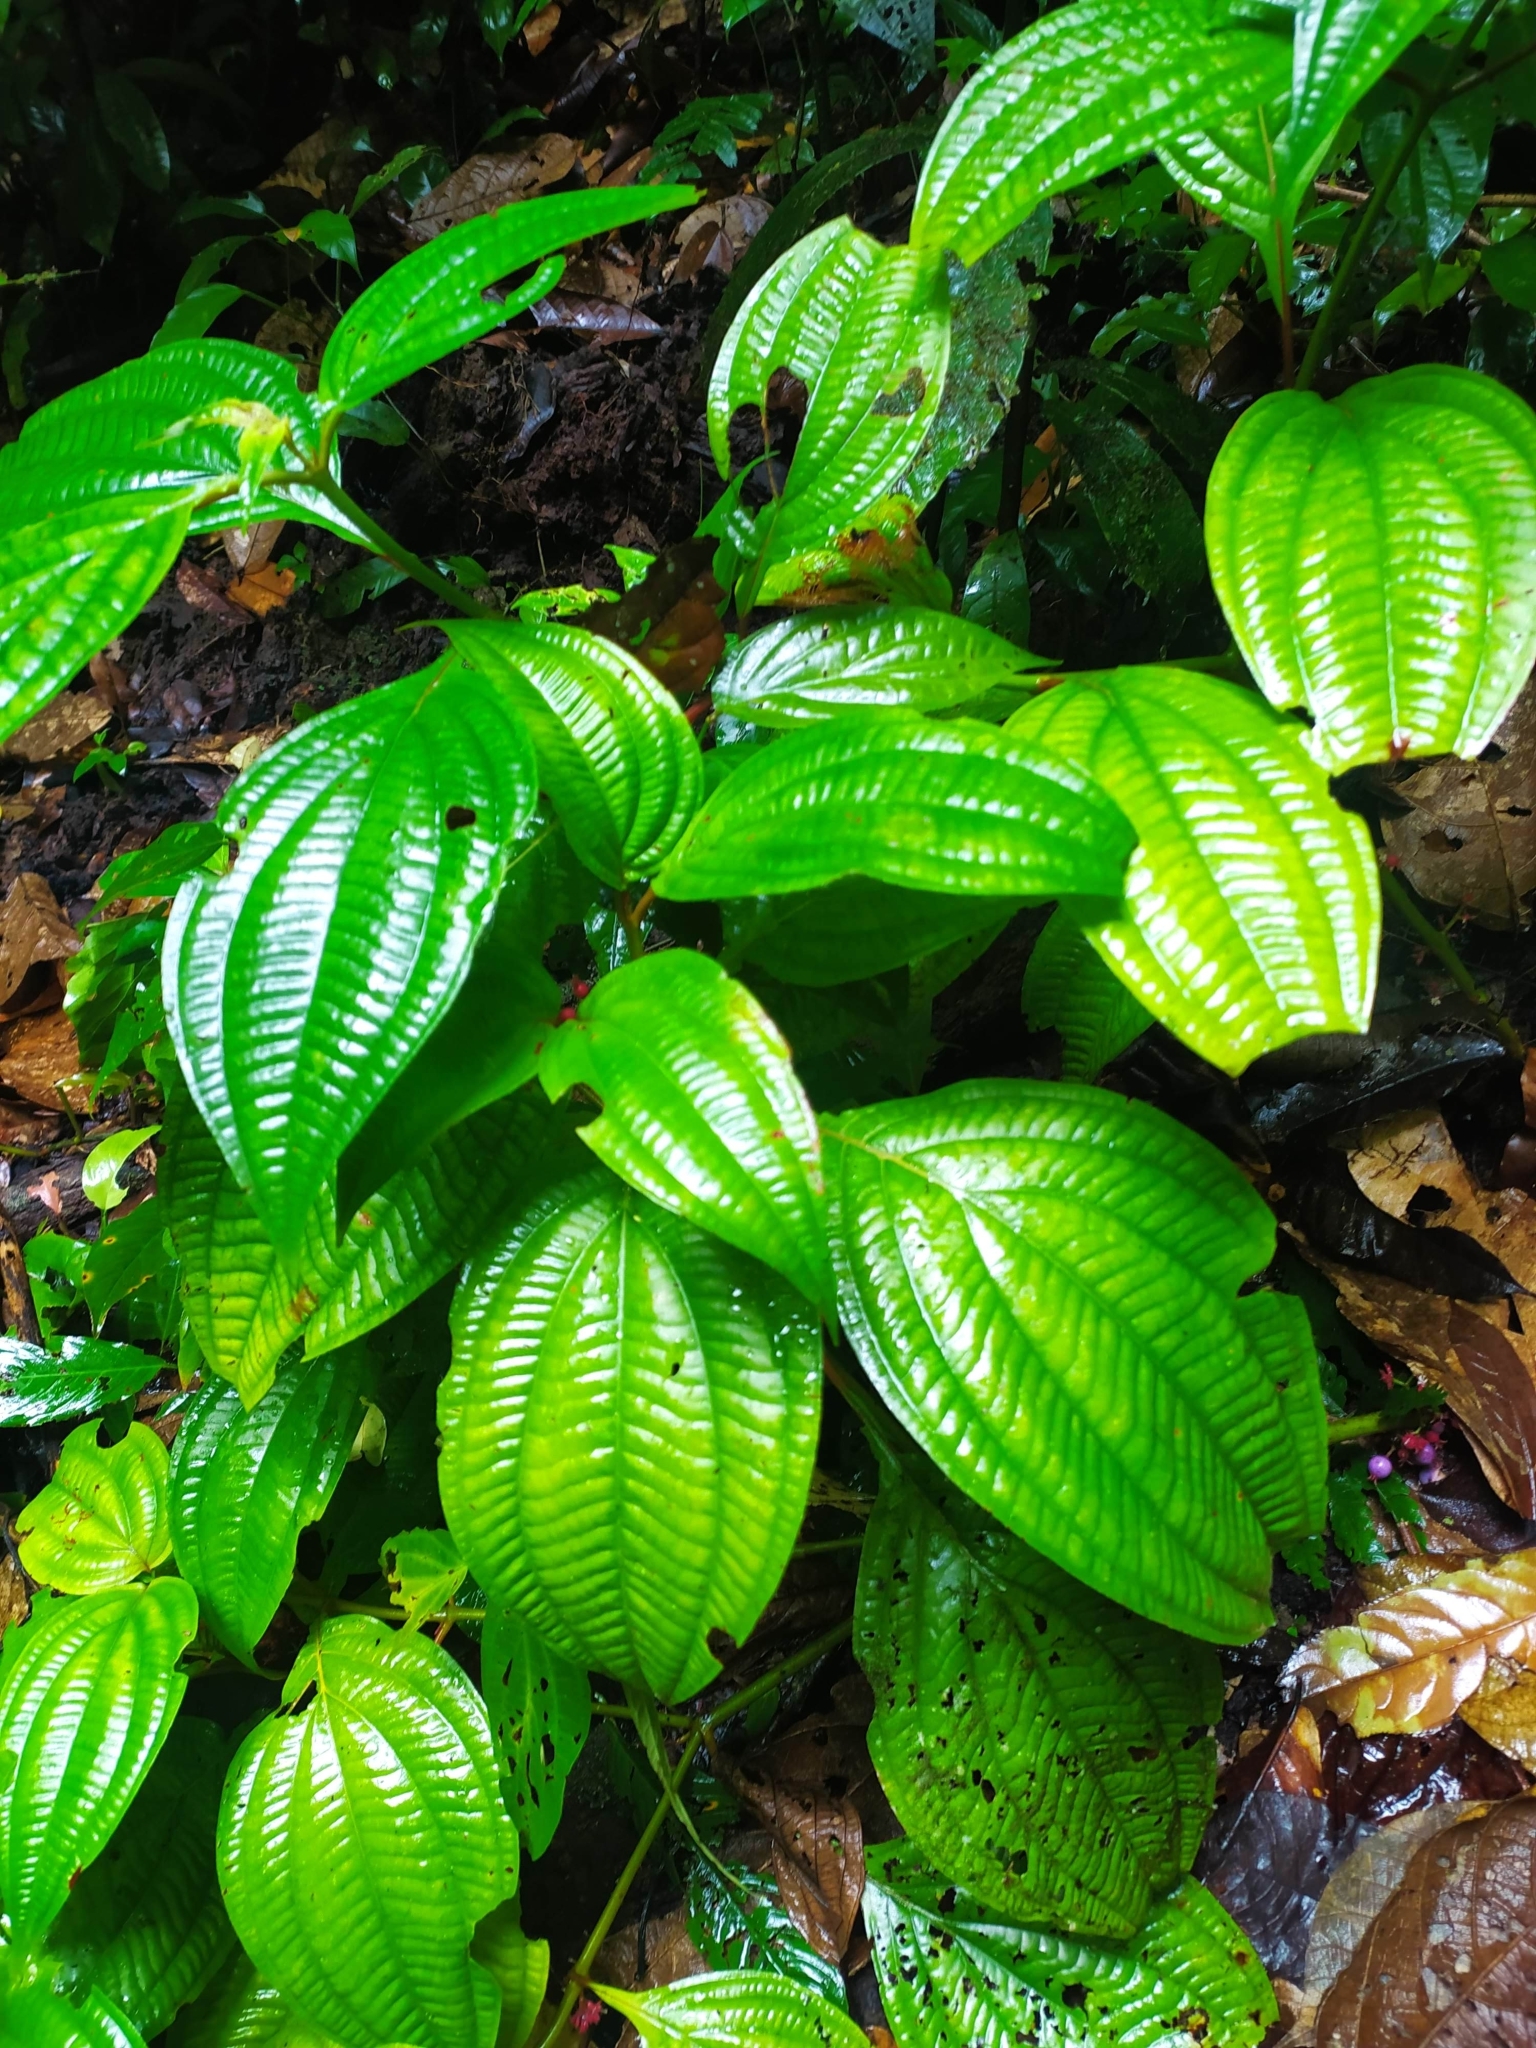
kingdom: Plantae
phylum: Tracheophyta
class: Magnoliopsida
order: Myrtales
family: Melastomataceae
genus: Miconia
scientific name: Miconia trichocalyx
